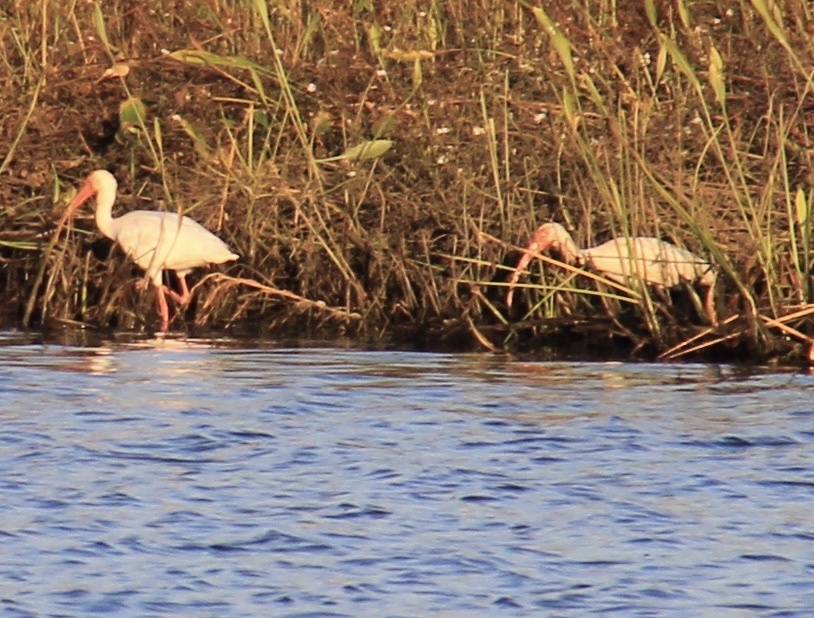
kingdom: Animalia
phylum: Chordata
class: Aves
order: Pelecaniformes
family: Threskiornithidae
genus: Eudocimus
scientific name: Eudocimus albus
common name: White ibis
